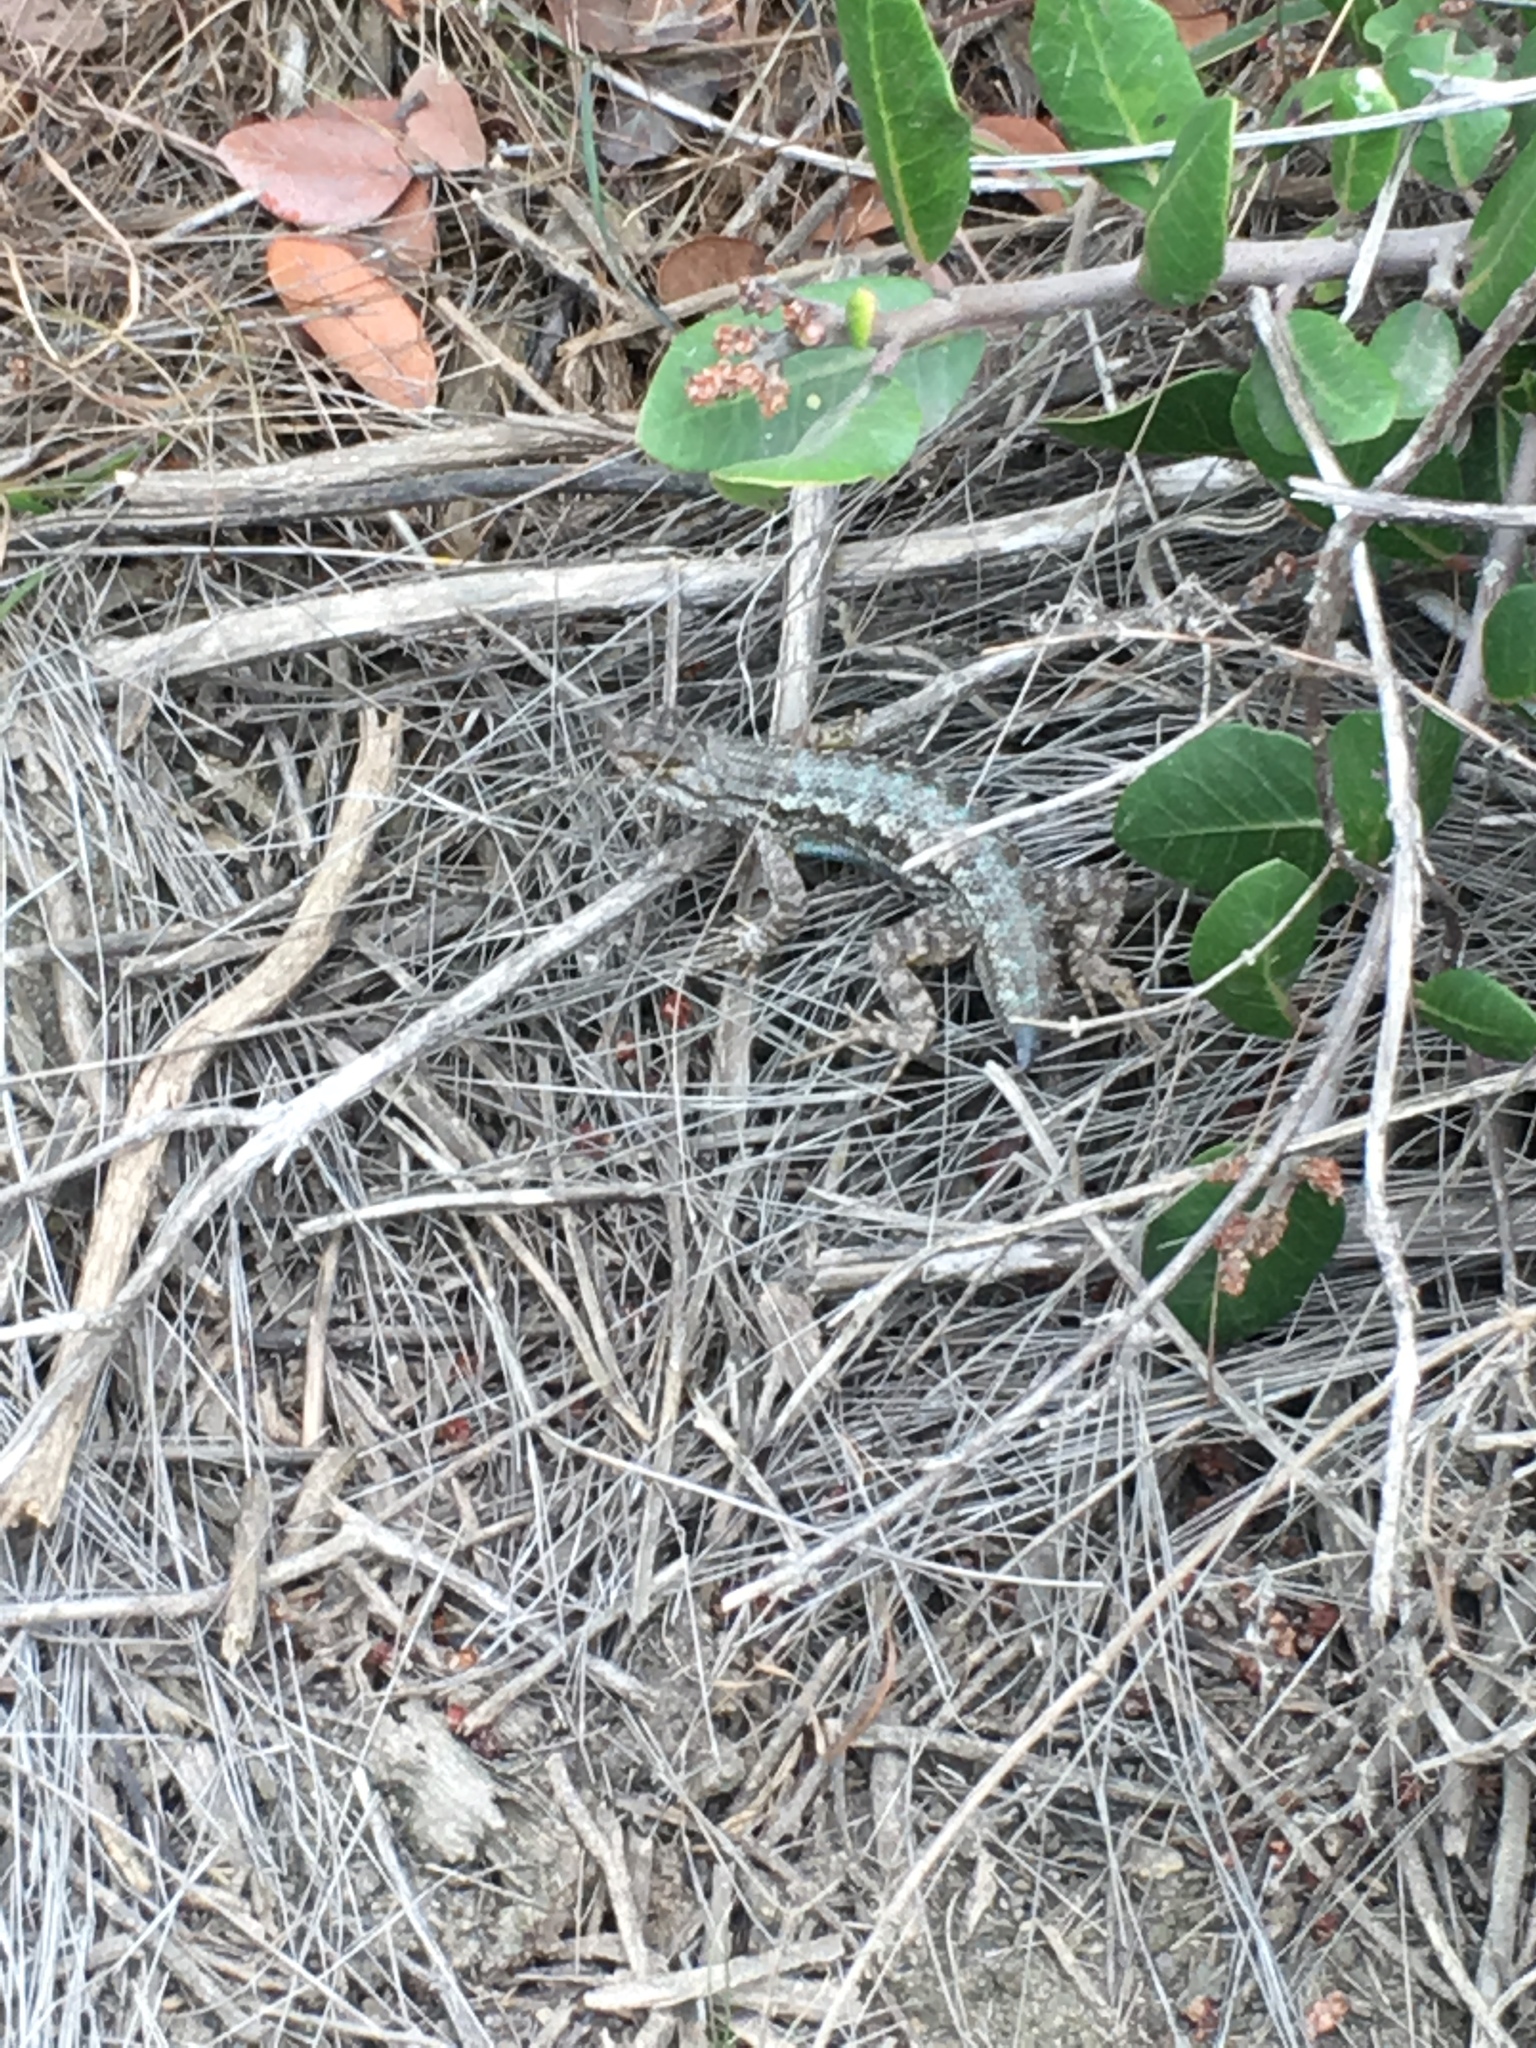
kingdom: Animalia
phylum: Chordata
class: Squamata
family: Phrynosomatidae
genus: Sceloporus
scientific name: Sceloporus occidentalis
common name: Western fence lizard
